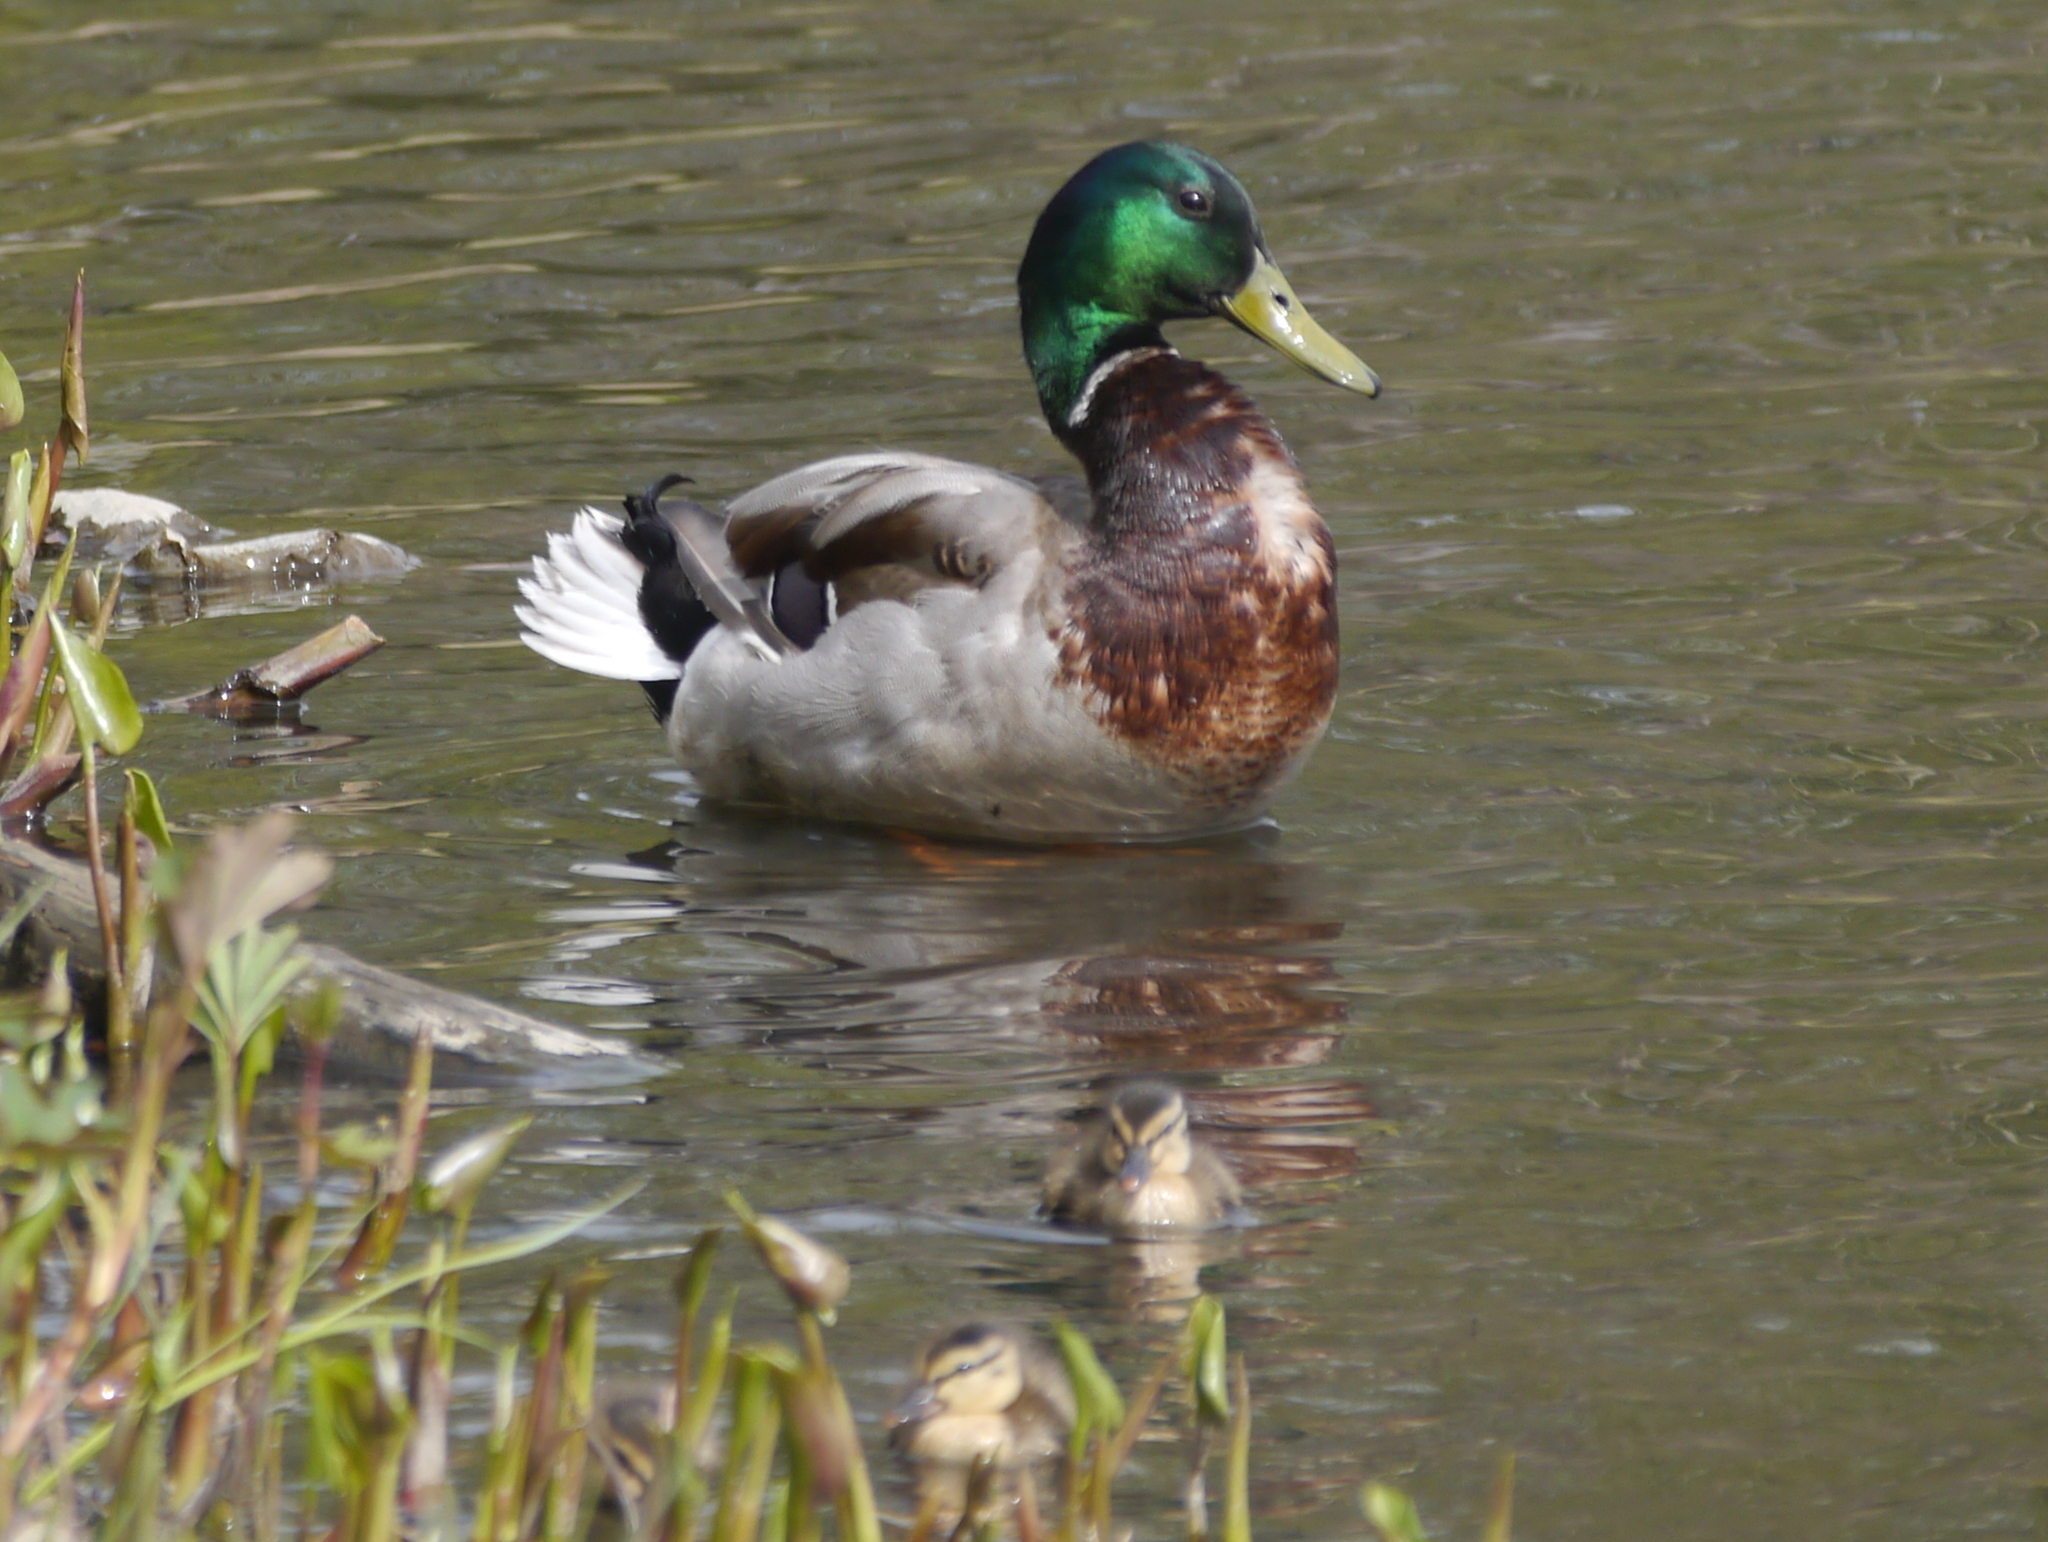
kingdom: Animalia
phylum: Chordata
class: Aves
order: Anseriformes
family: Anatidae
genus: Anas
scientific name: Anas platyrhynchos
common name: Mallard
